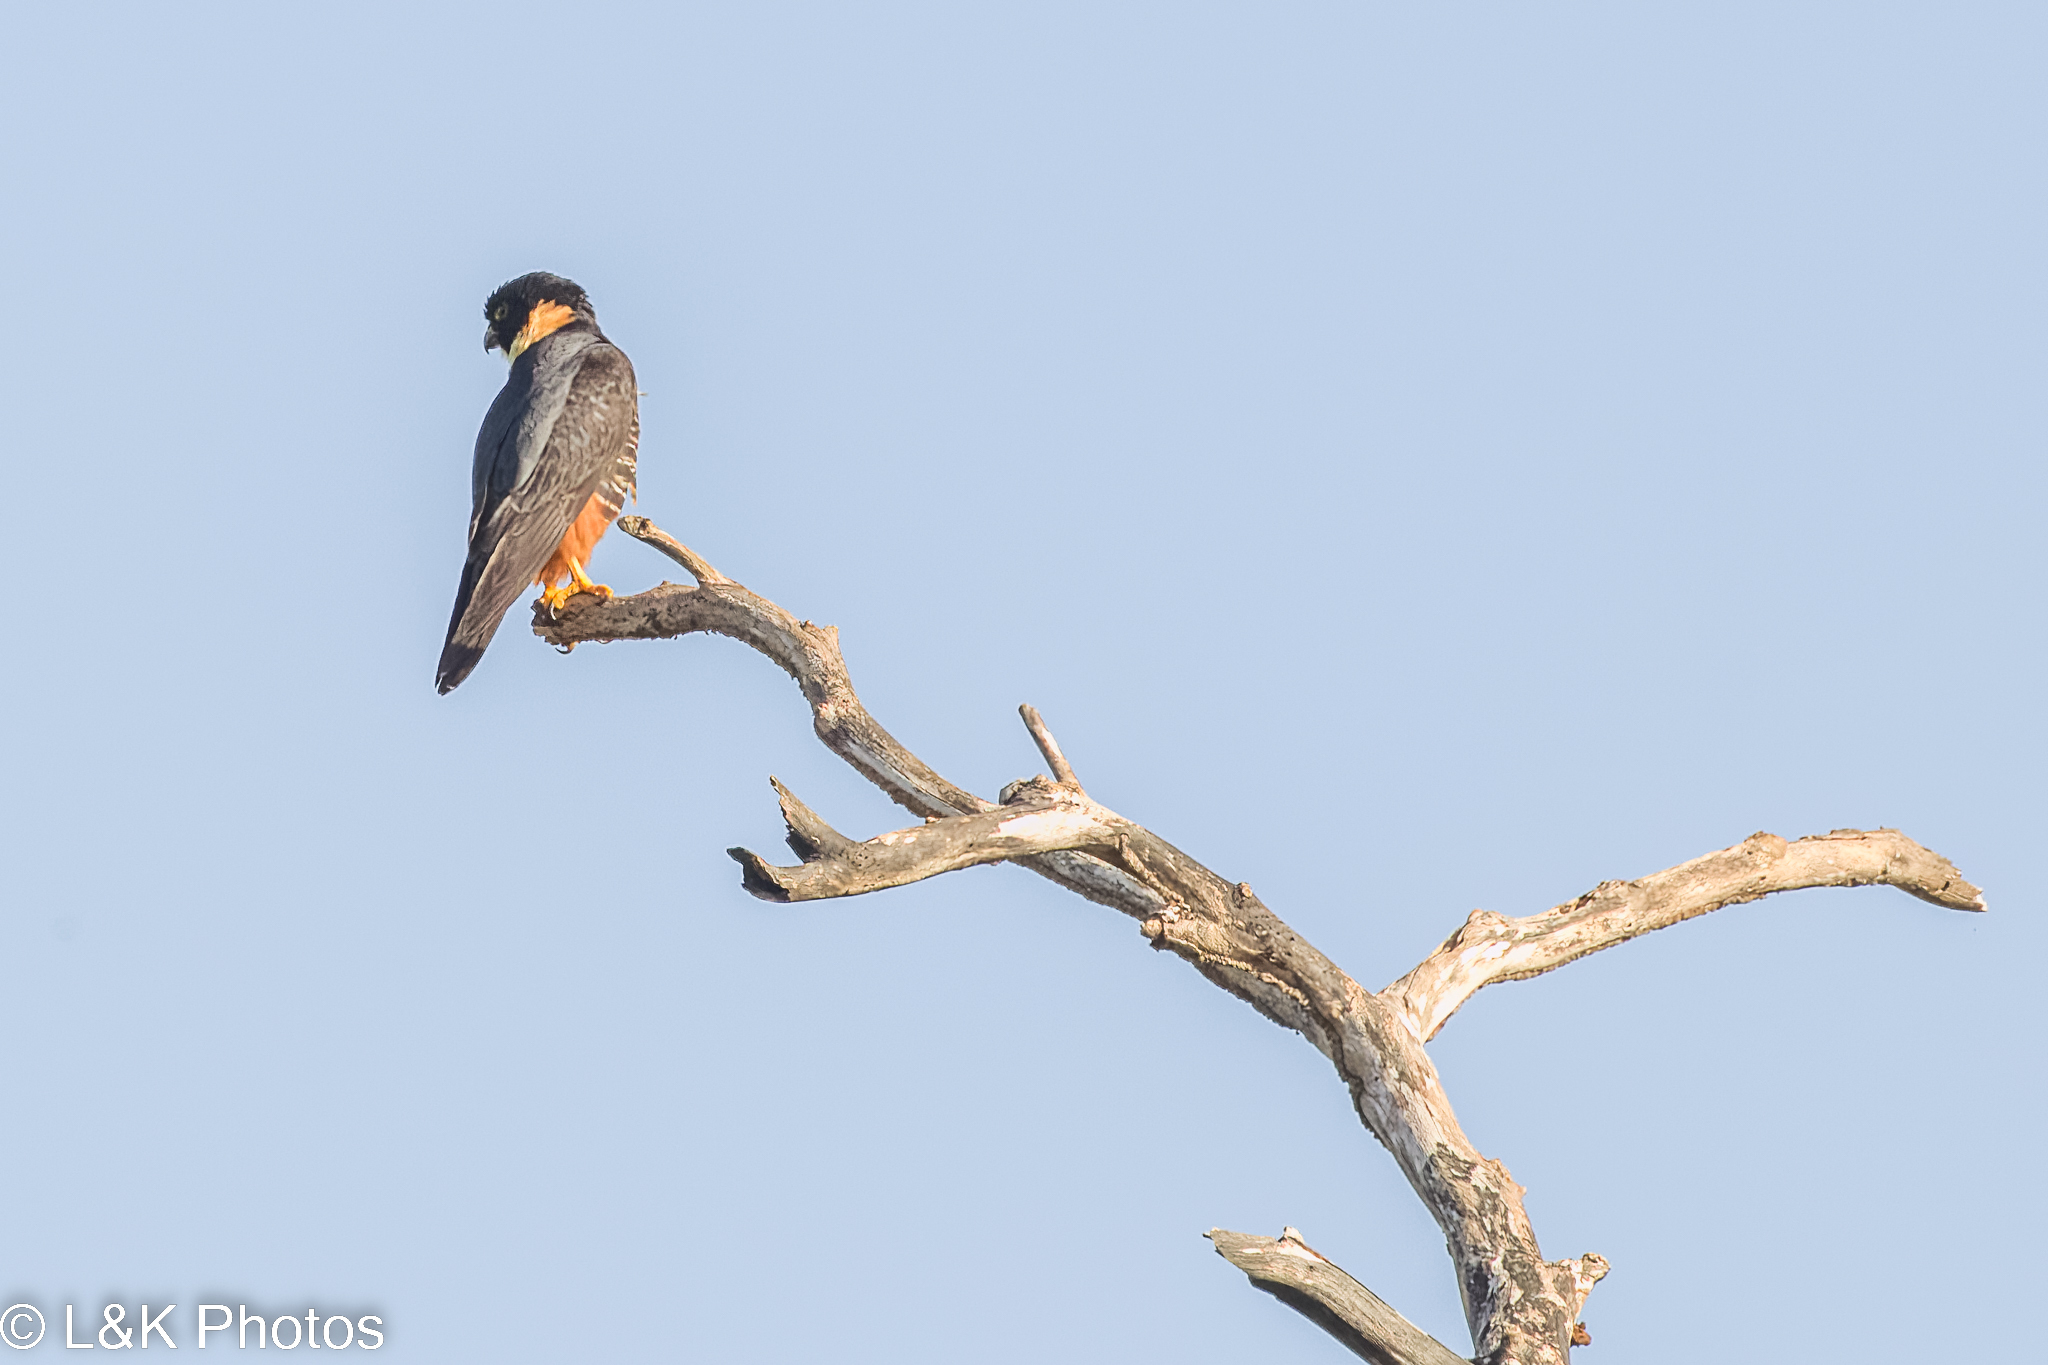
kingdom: Animalia
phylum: Chordata
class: Aves
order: Falconiformes
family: Falconidae
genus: Falco
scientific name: Falco rufigularis
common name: Bat falcon
